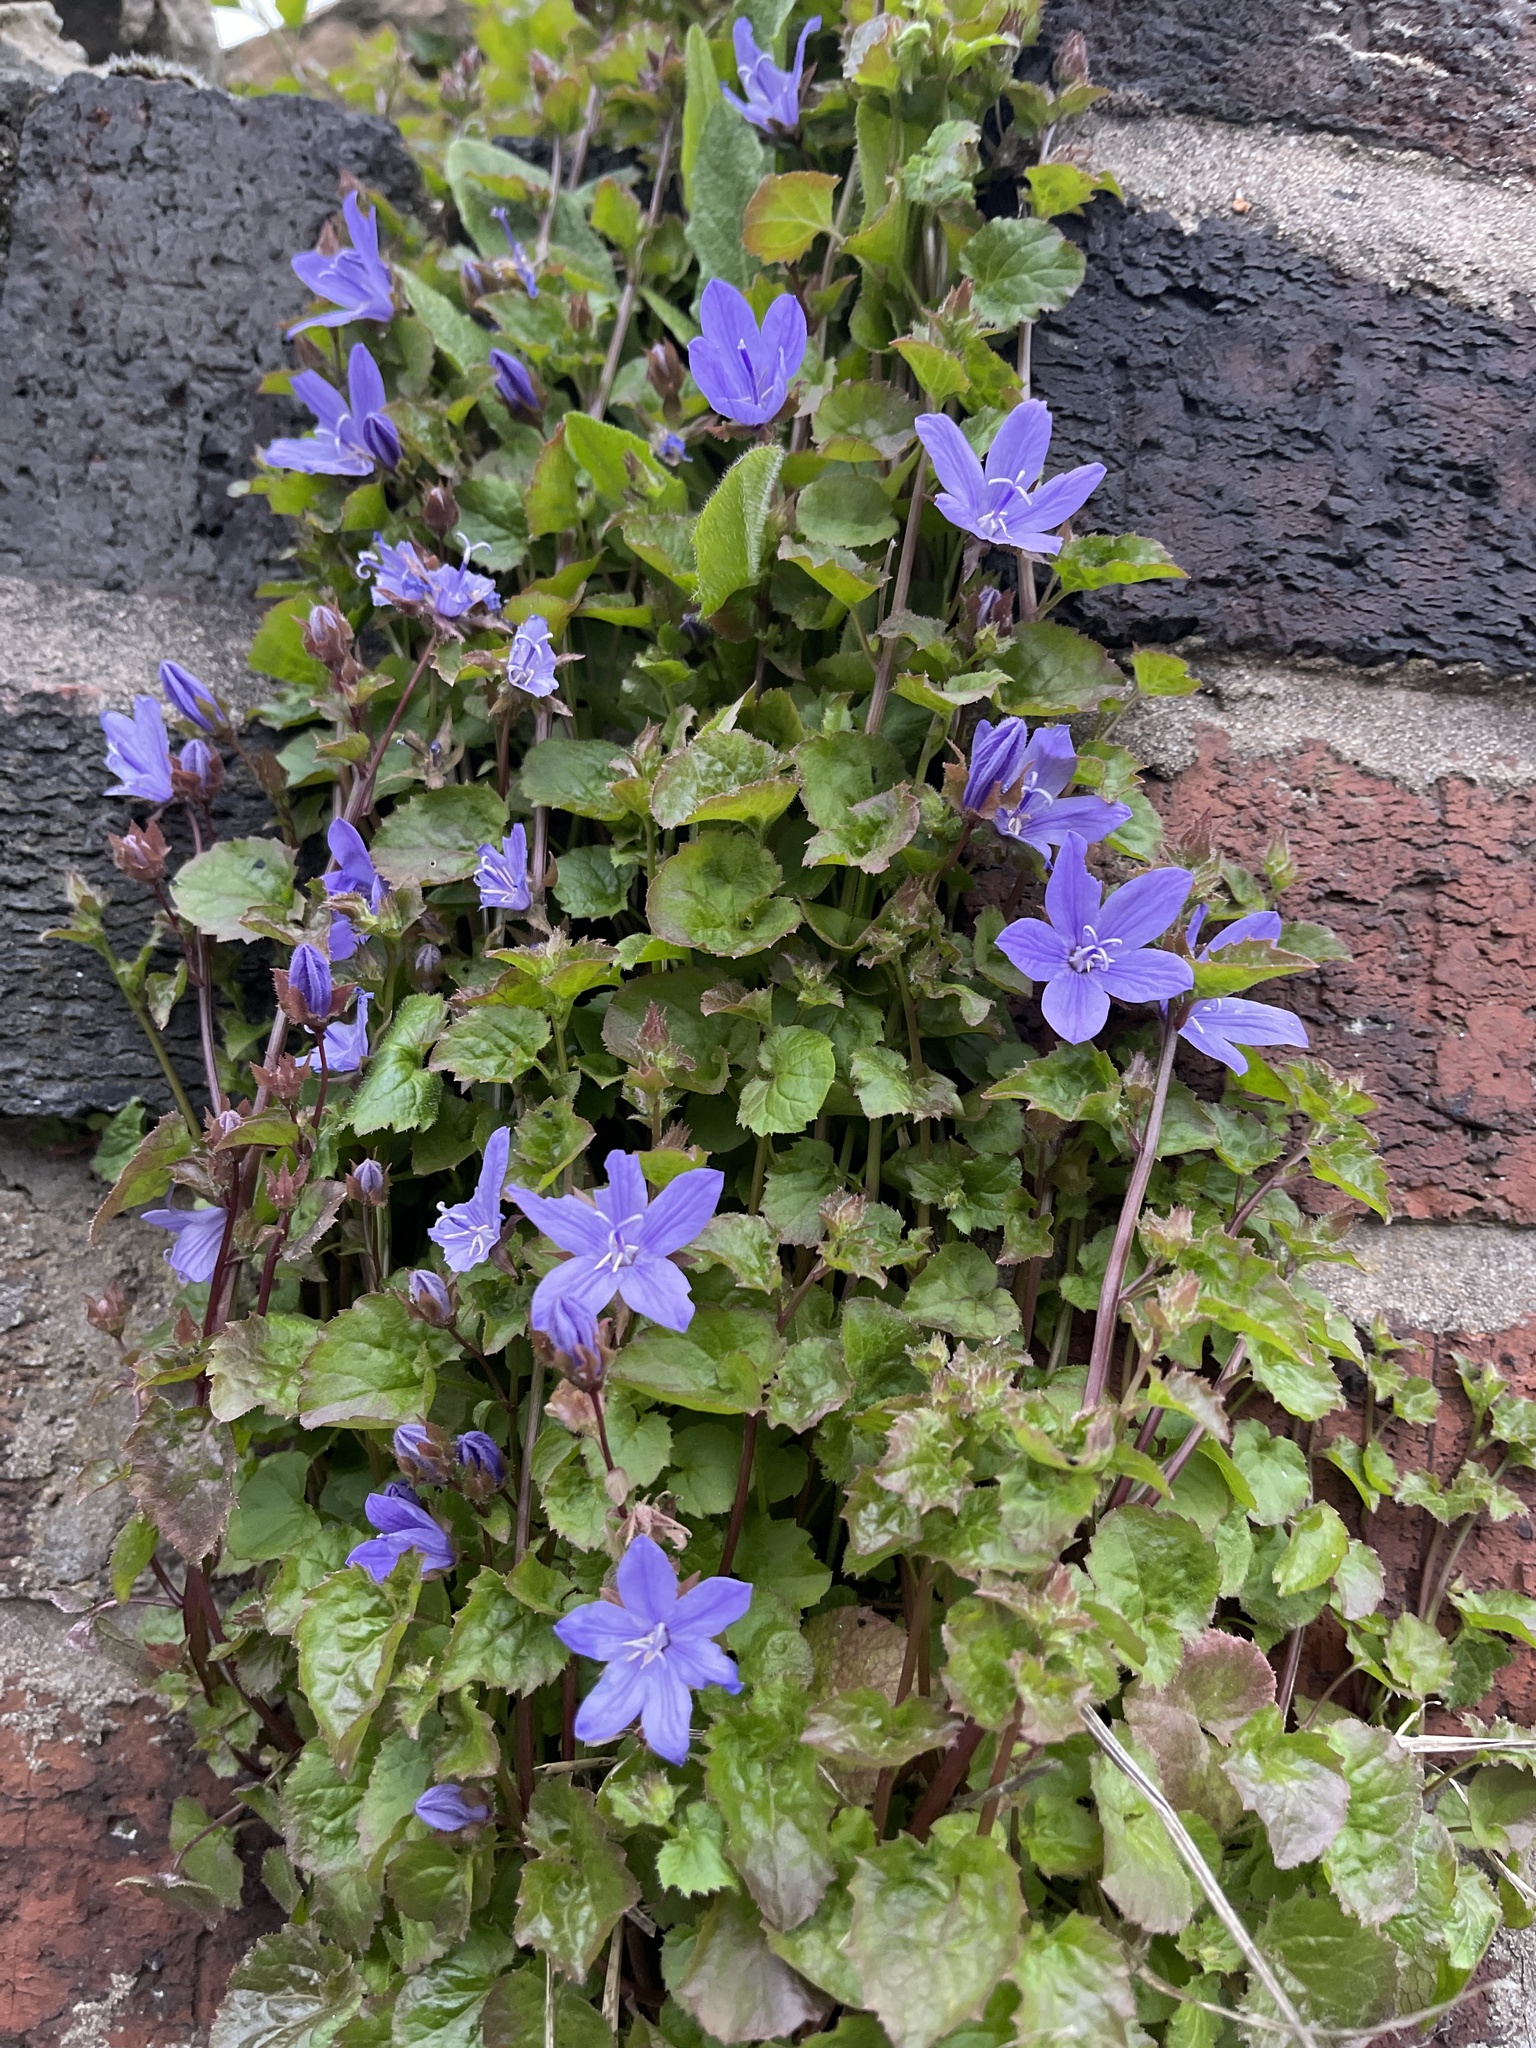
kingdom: Plantae
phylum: Tracheophyta
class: Magnoliopsida
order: Asterales
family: Campanulaceae
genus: Campanula
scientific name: Campanula poscharskyana
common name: Trailing bellflower
